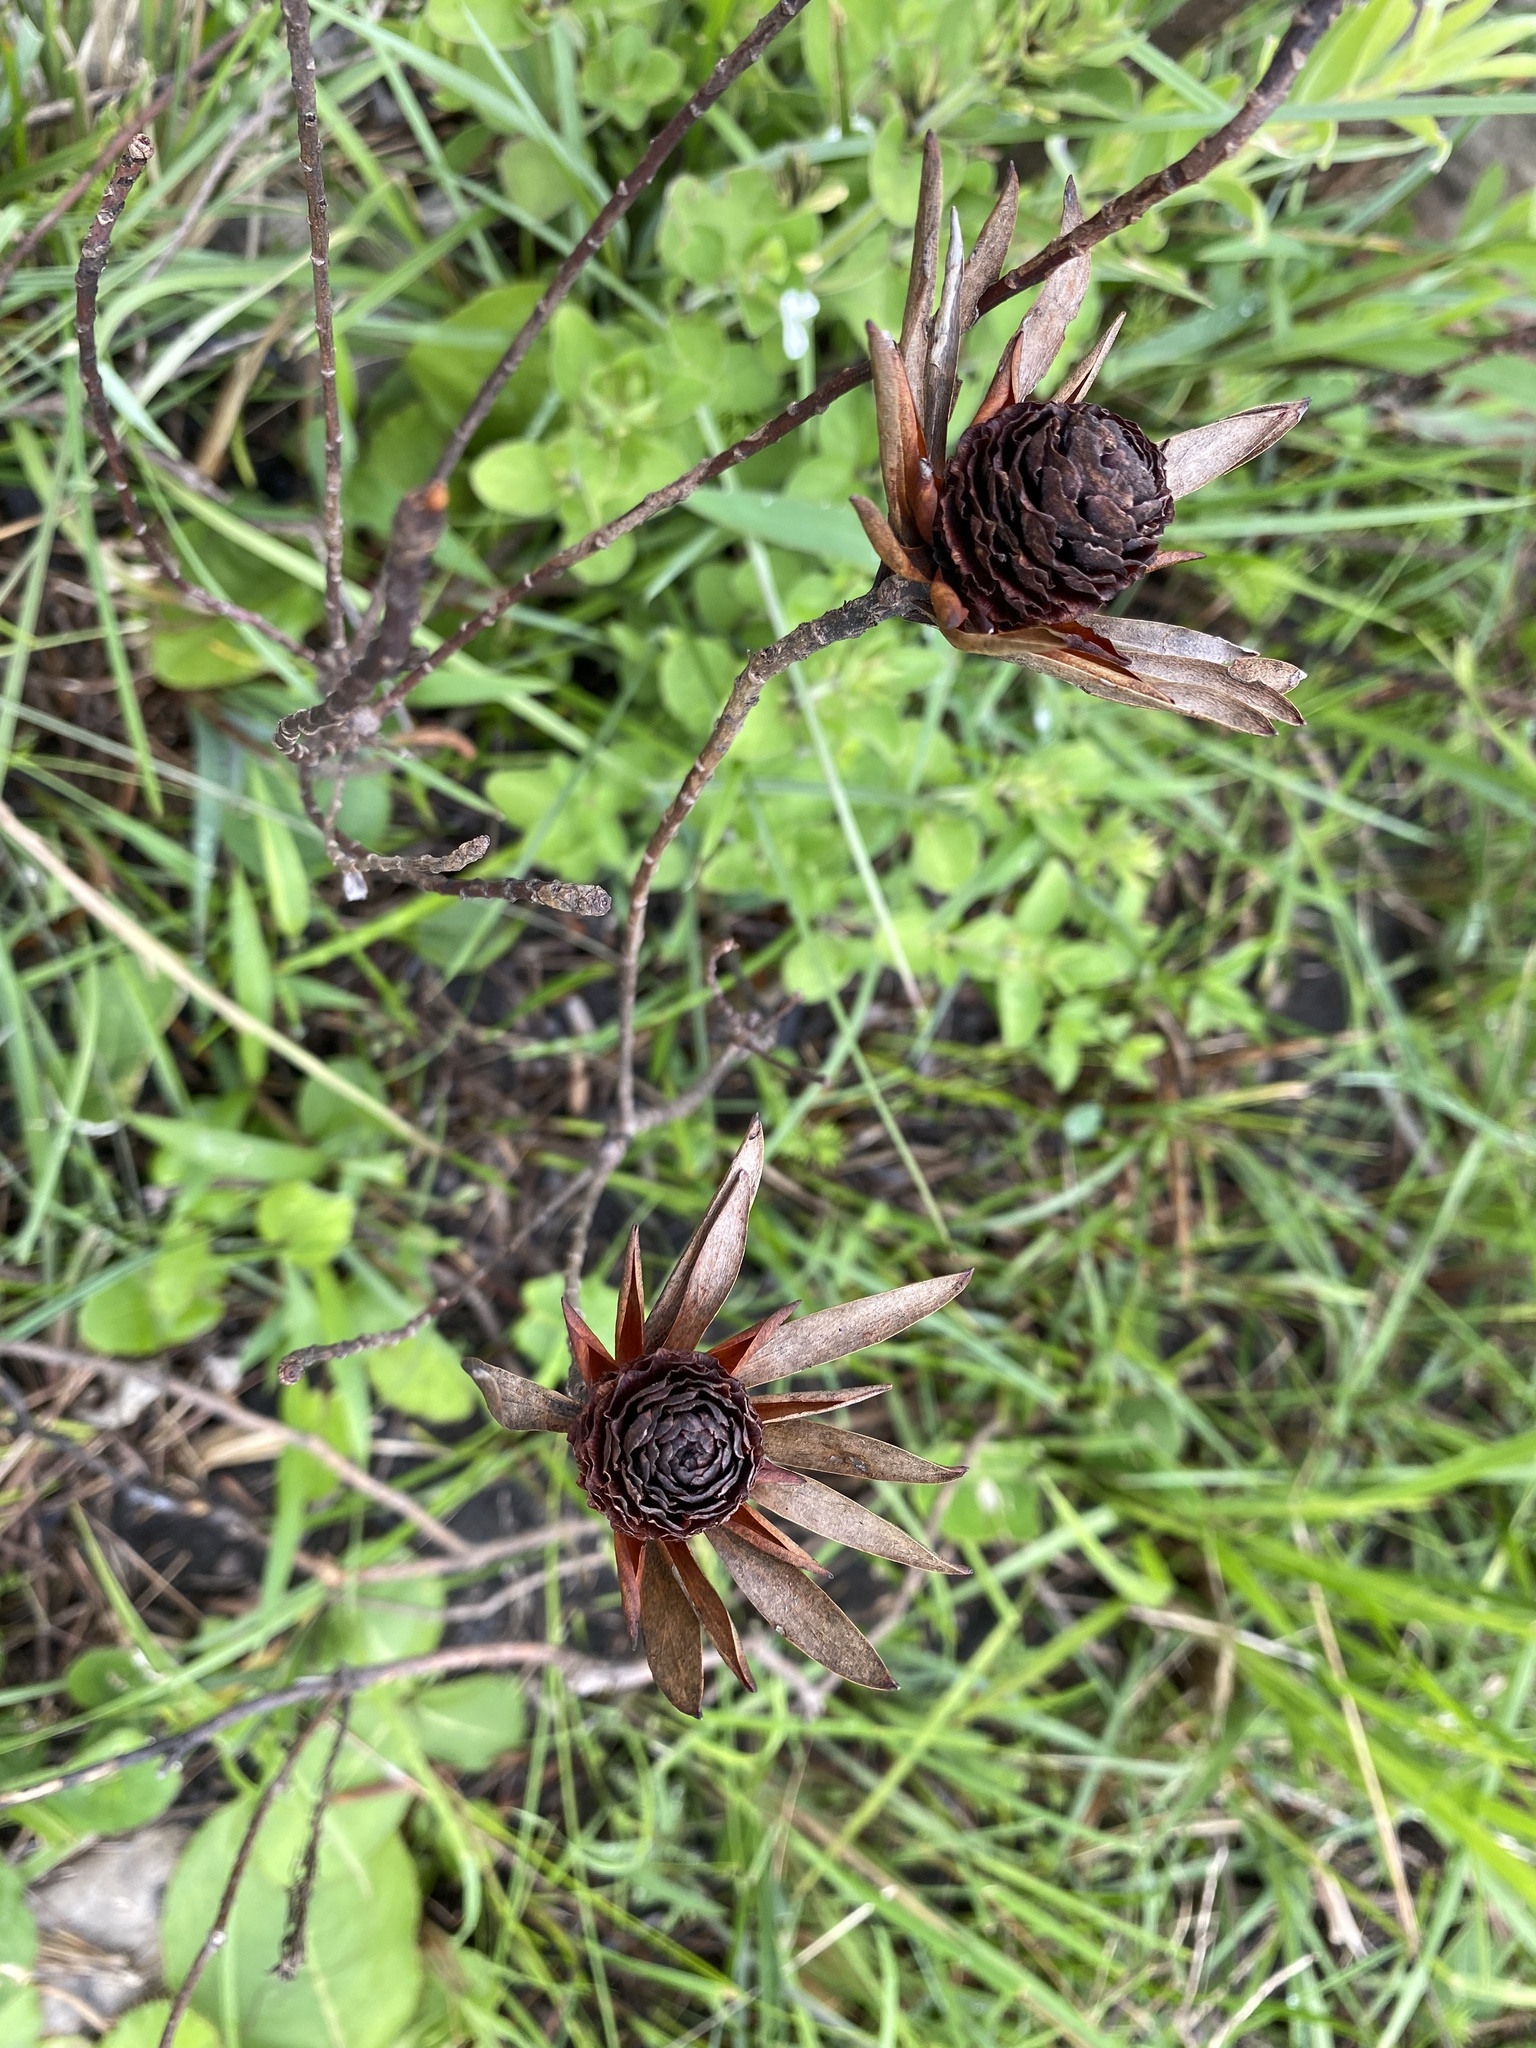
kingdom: Plantae
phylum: Tracheophyta
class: Magnoliopsida
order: Proteales
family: Proteaceae
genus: Leucadendron
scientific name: Leucadendron spissifolium
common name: Spear-leaf conebush
